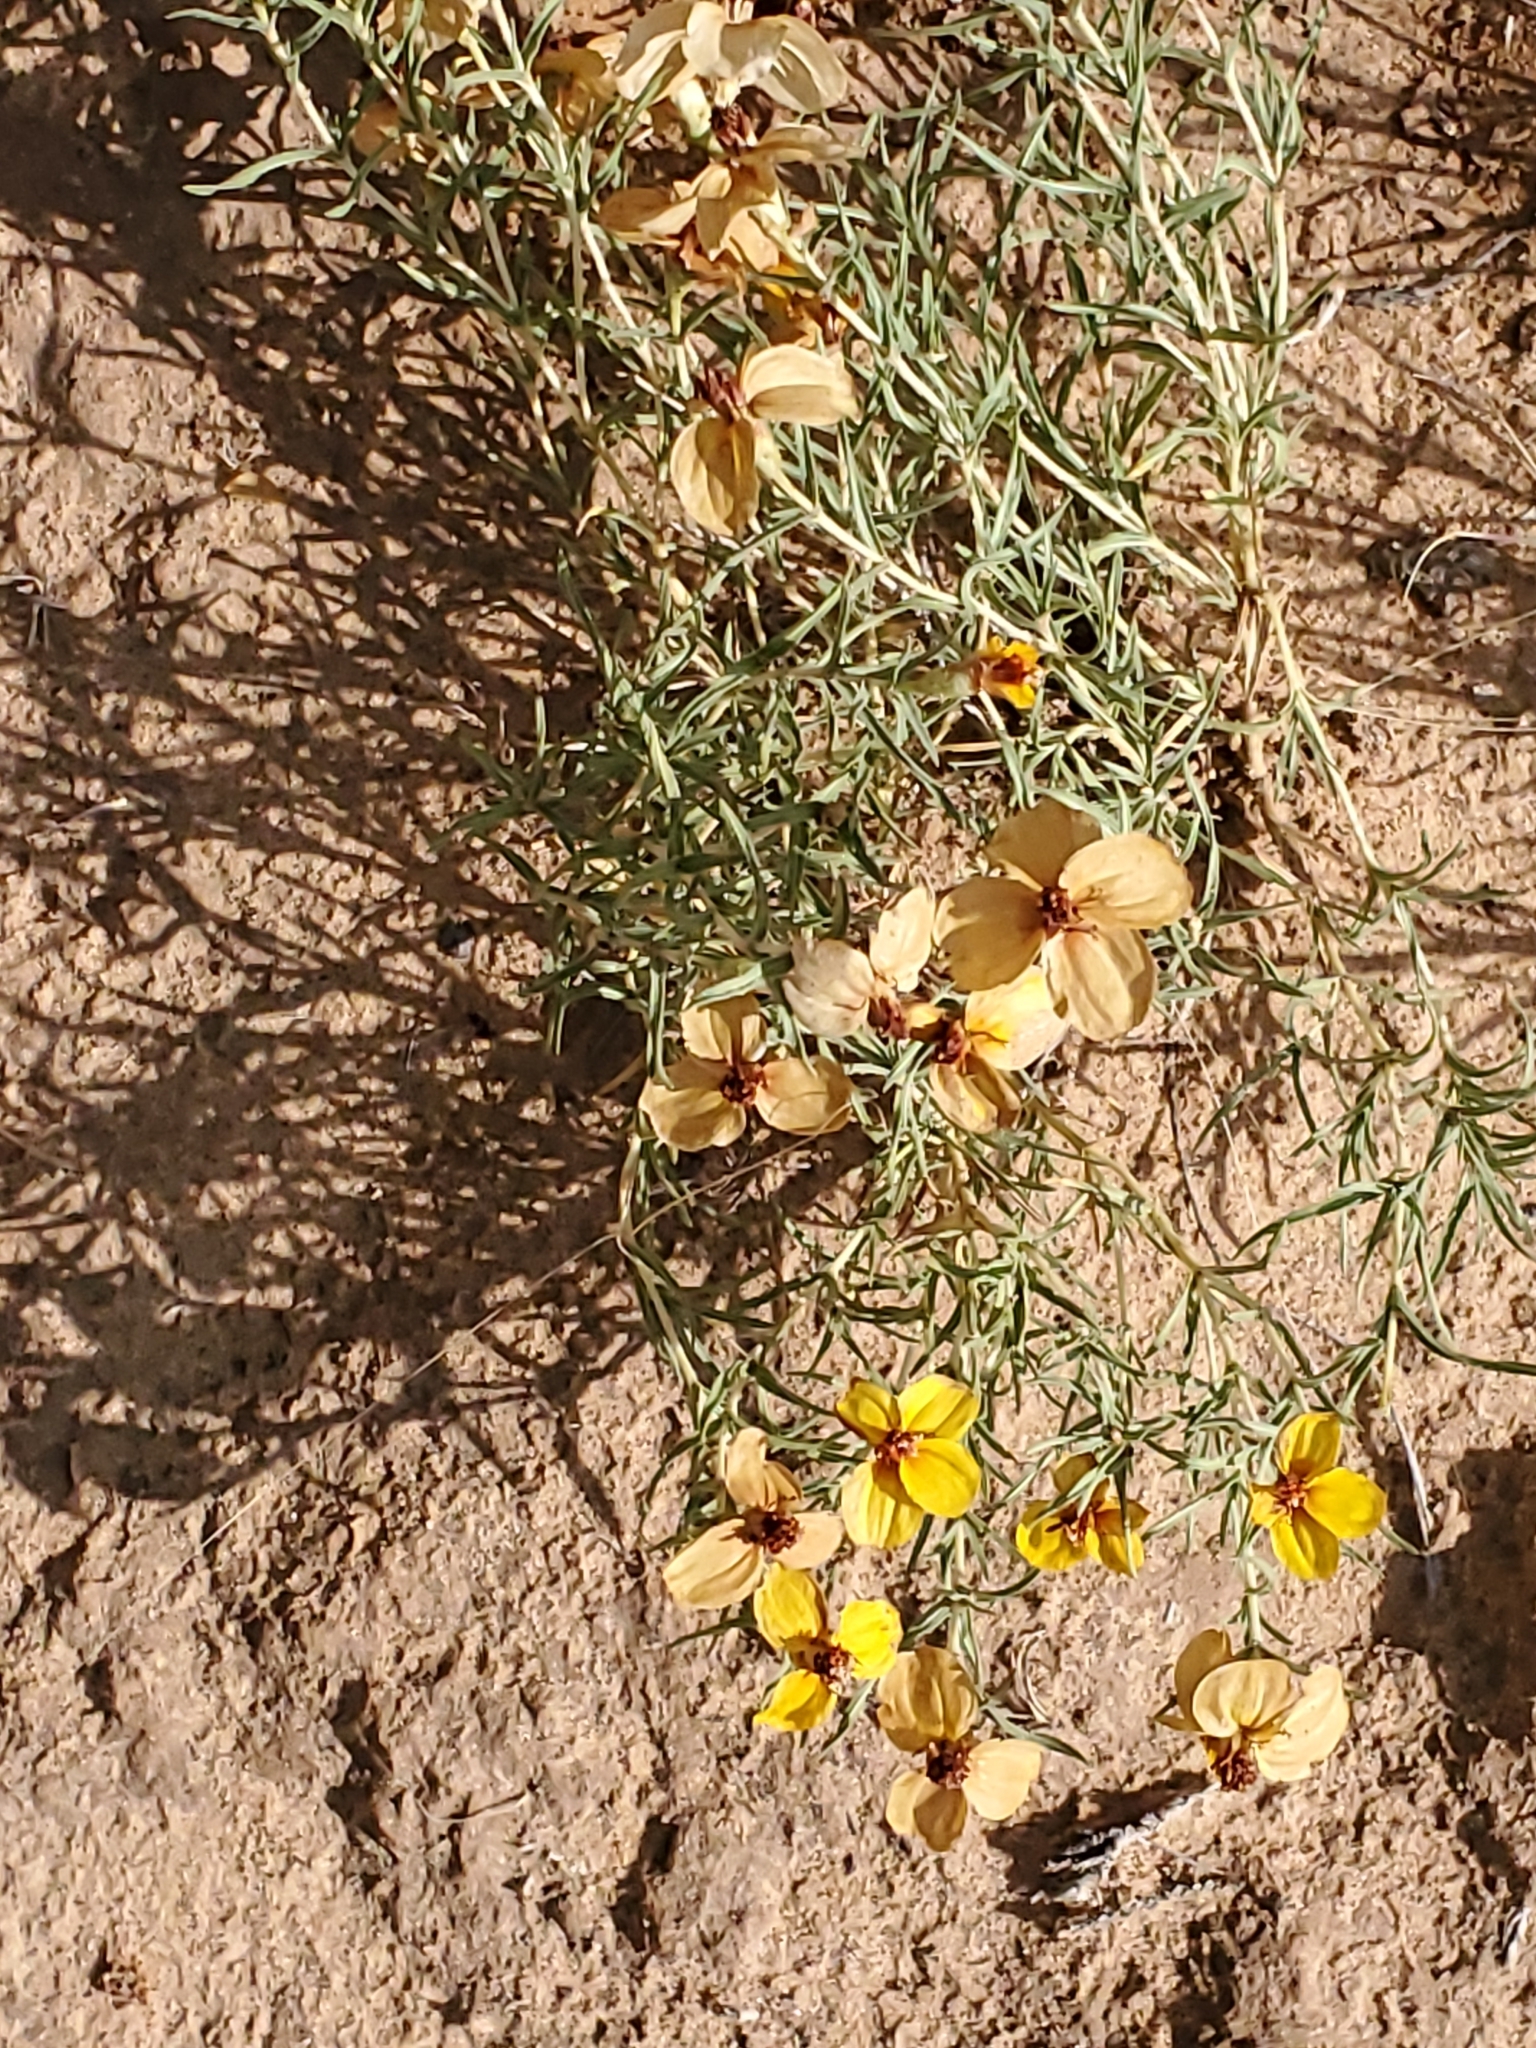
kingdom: Plantae
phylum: Tracheophyta
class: Magnoliopsida
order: Asterales
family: Asteraceae
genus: Zinnia
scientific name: Zinnia grandiflora
